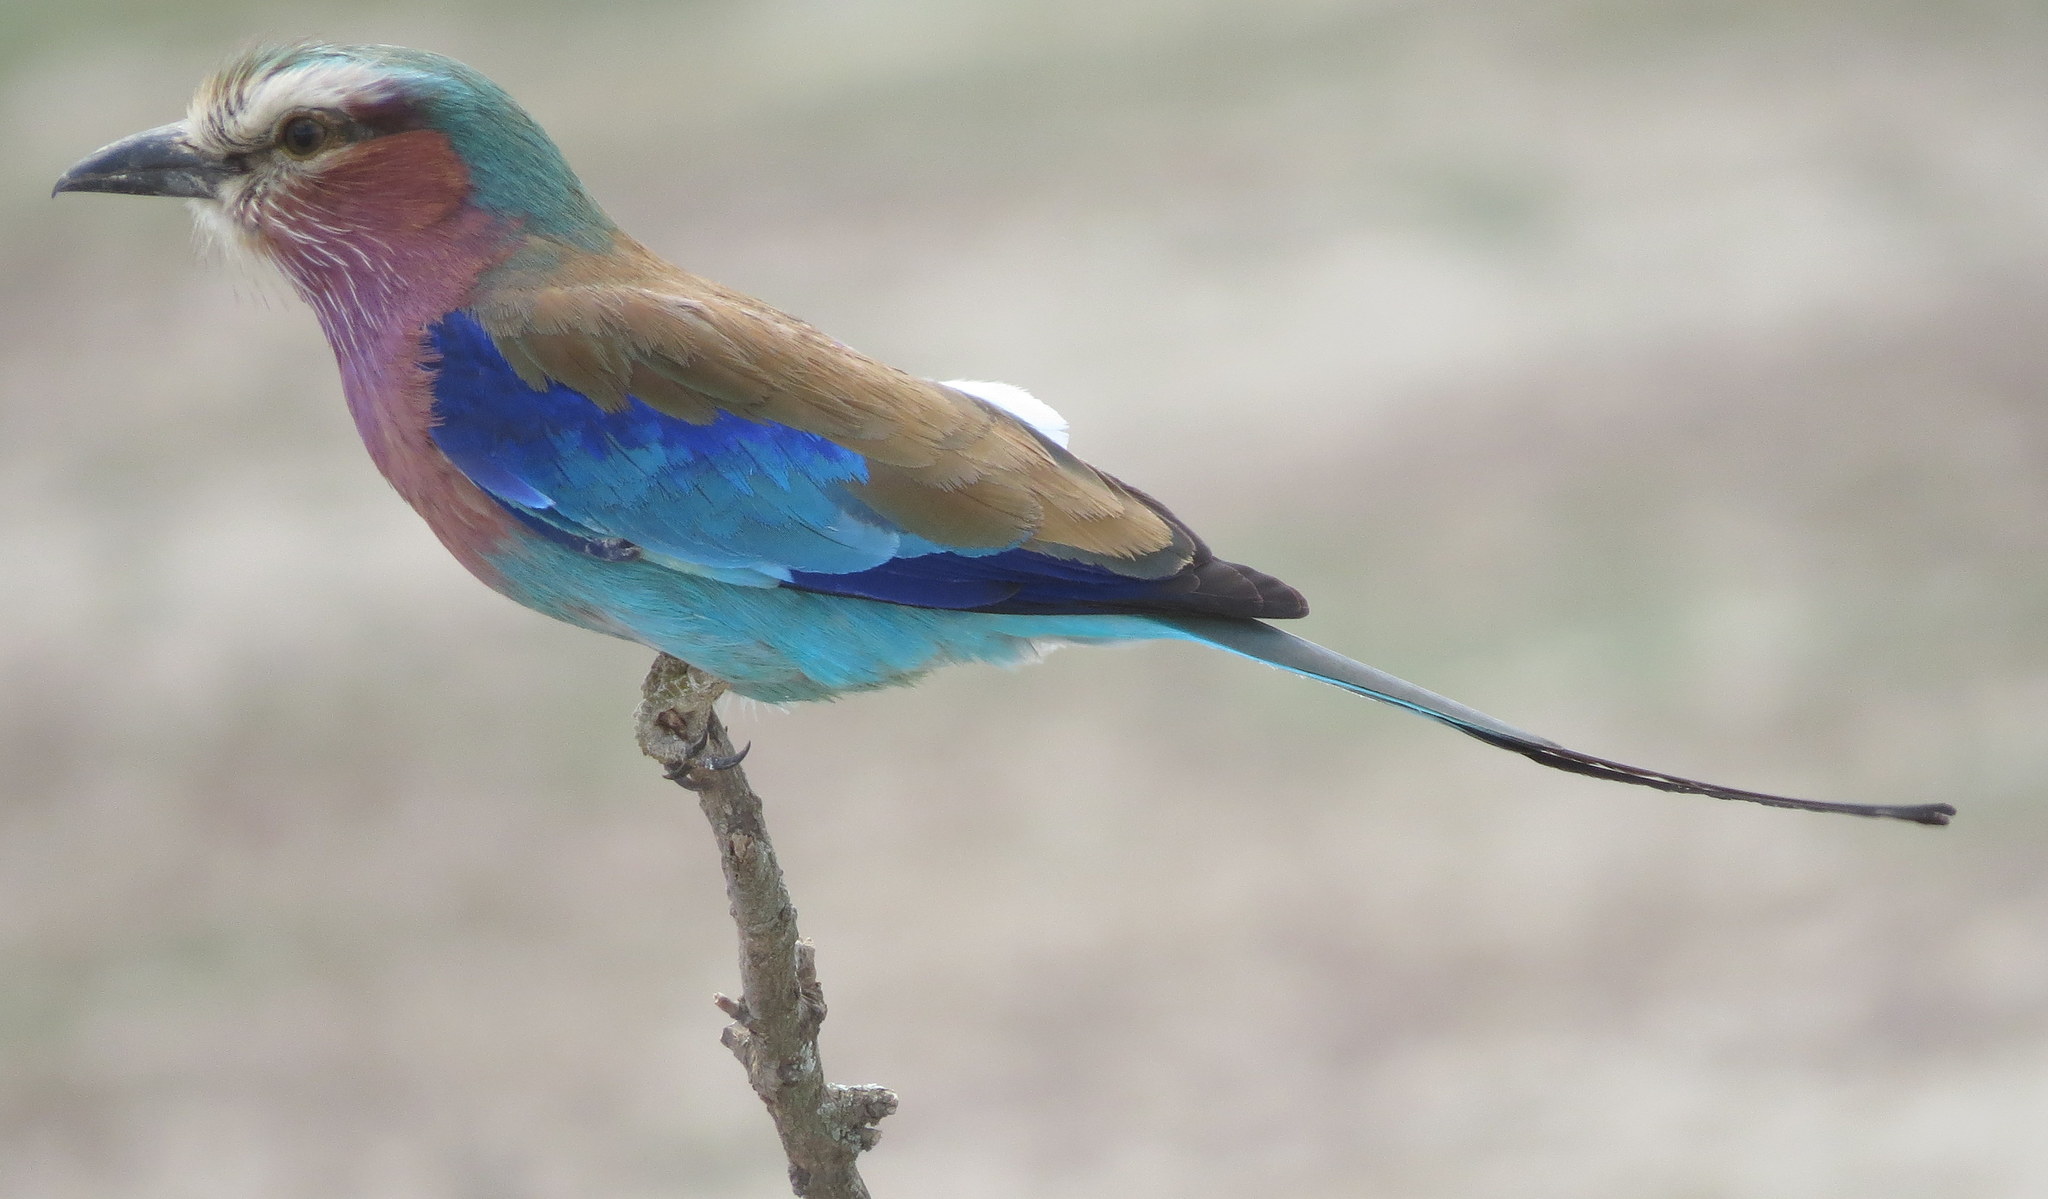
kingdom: Animalia
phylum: Chordata
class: Aves
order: Coraciiformes
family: Coraciidae
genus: Coracias
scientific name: Coracias caudatus
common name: Lilac-breasted roller
